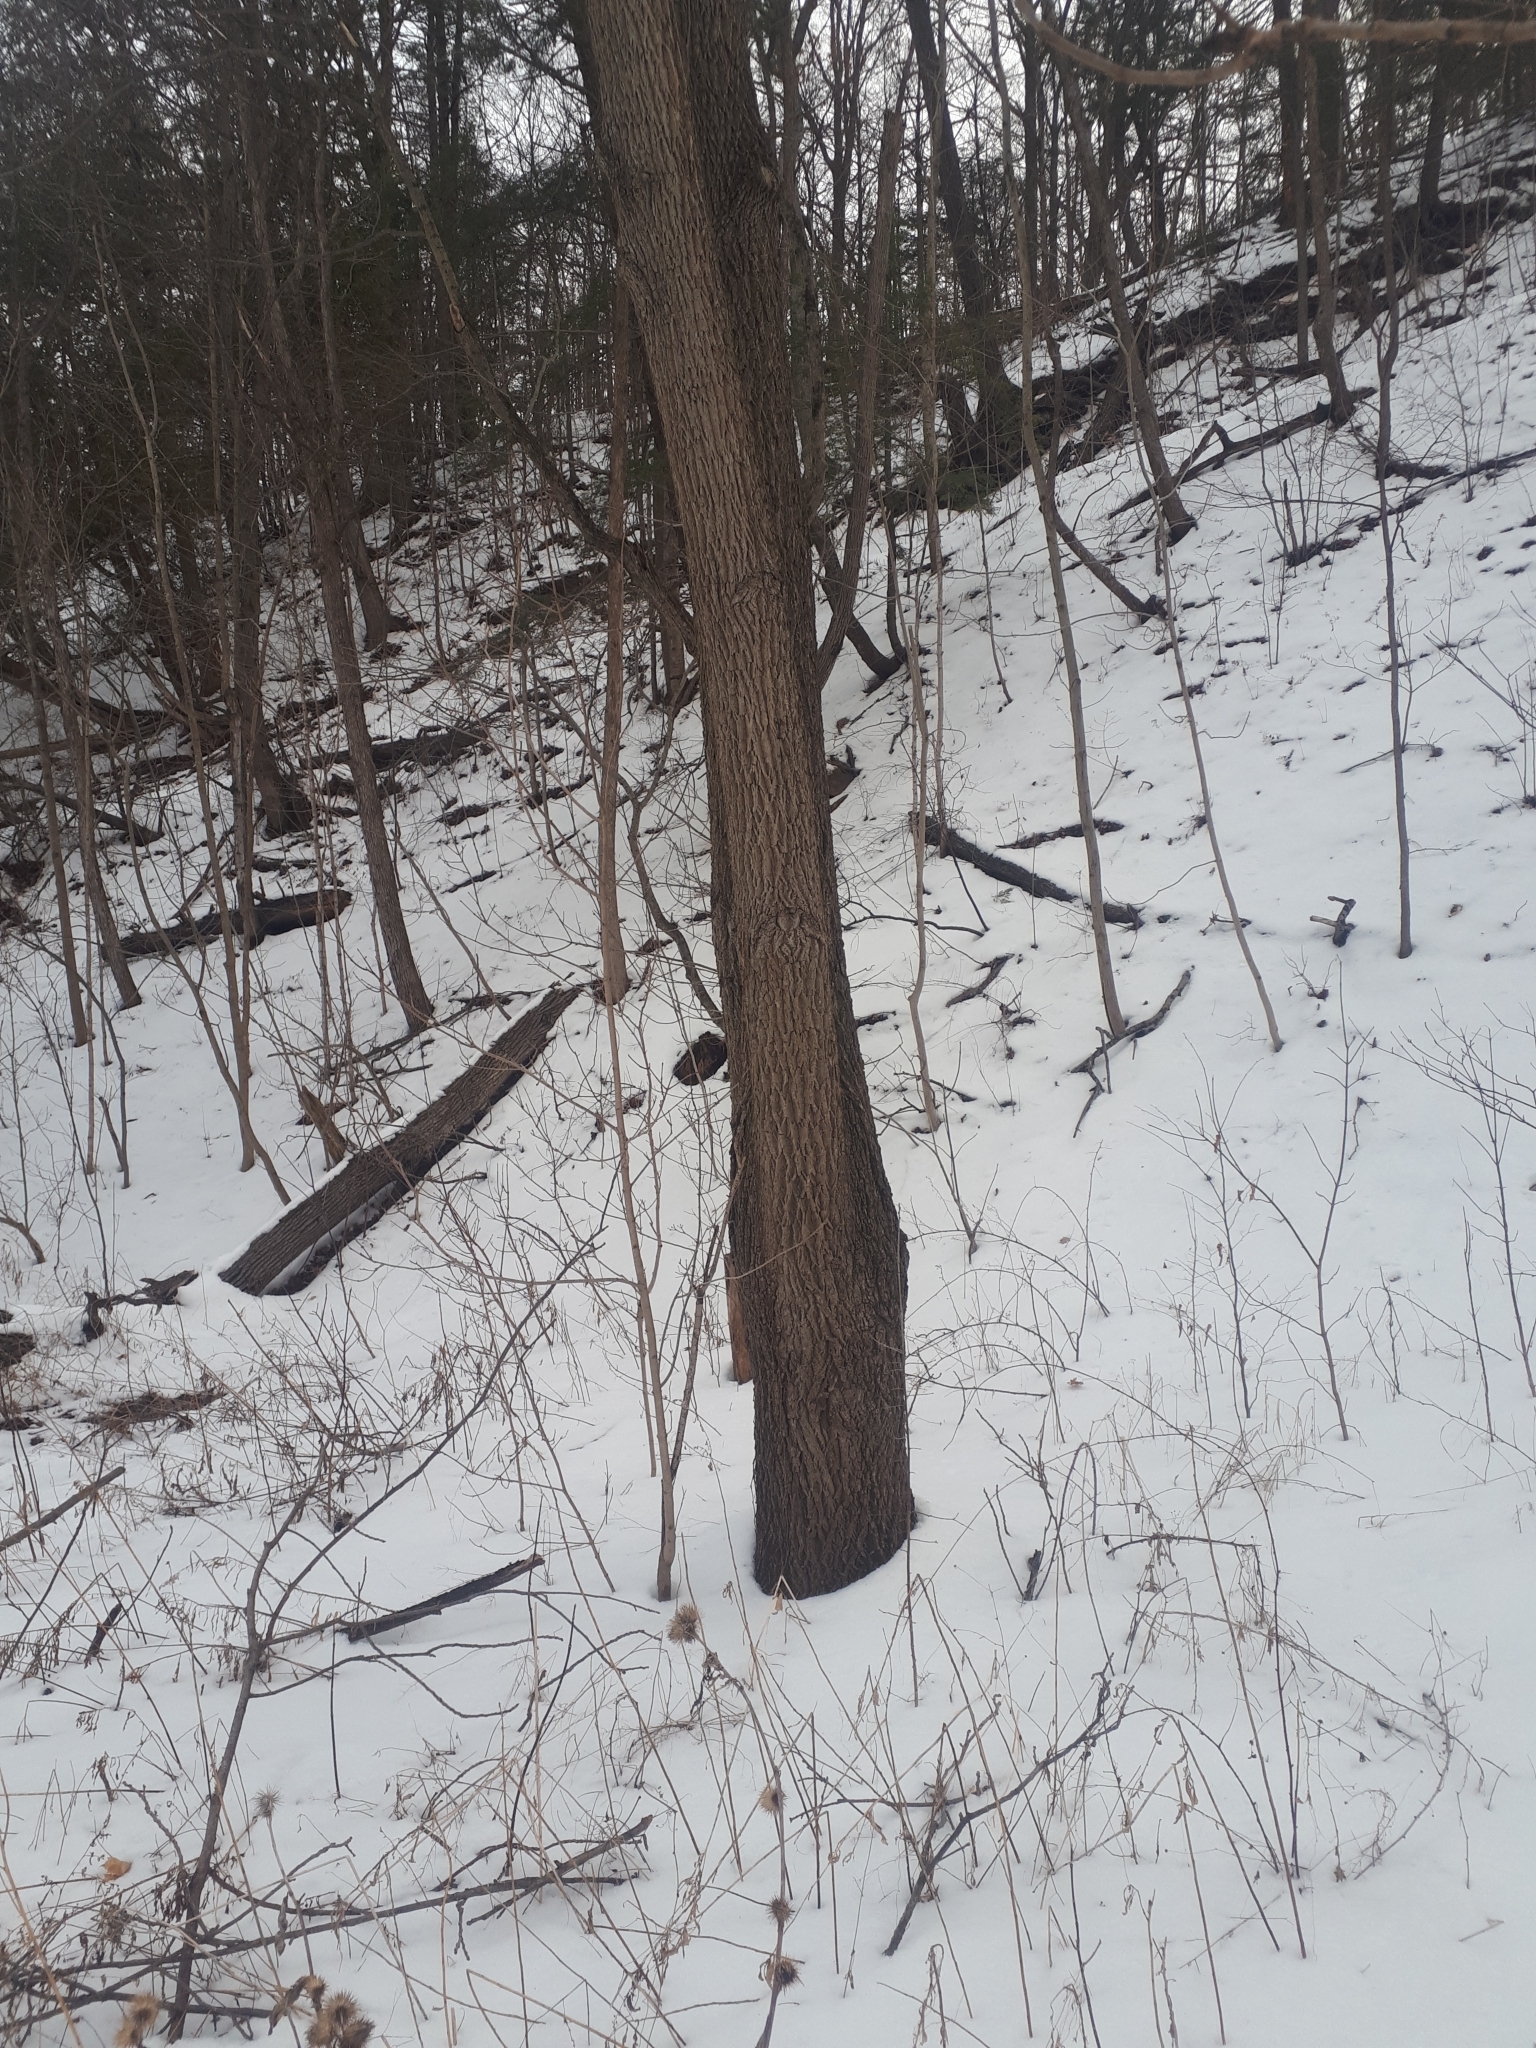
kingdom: Plantae
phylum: Tracheophyta
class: Magnoliopsida
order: Fagales
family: Juglandaceae
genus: Juglans
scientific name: Juglans nigra
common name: Black walnut
